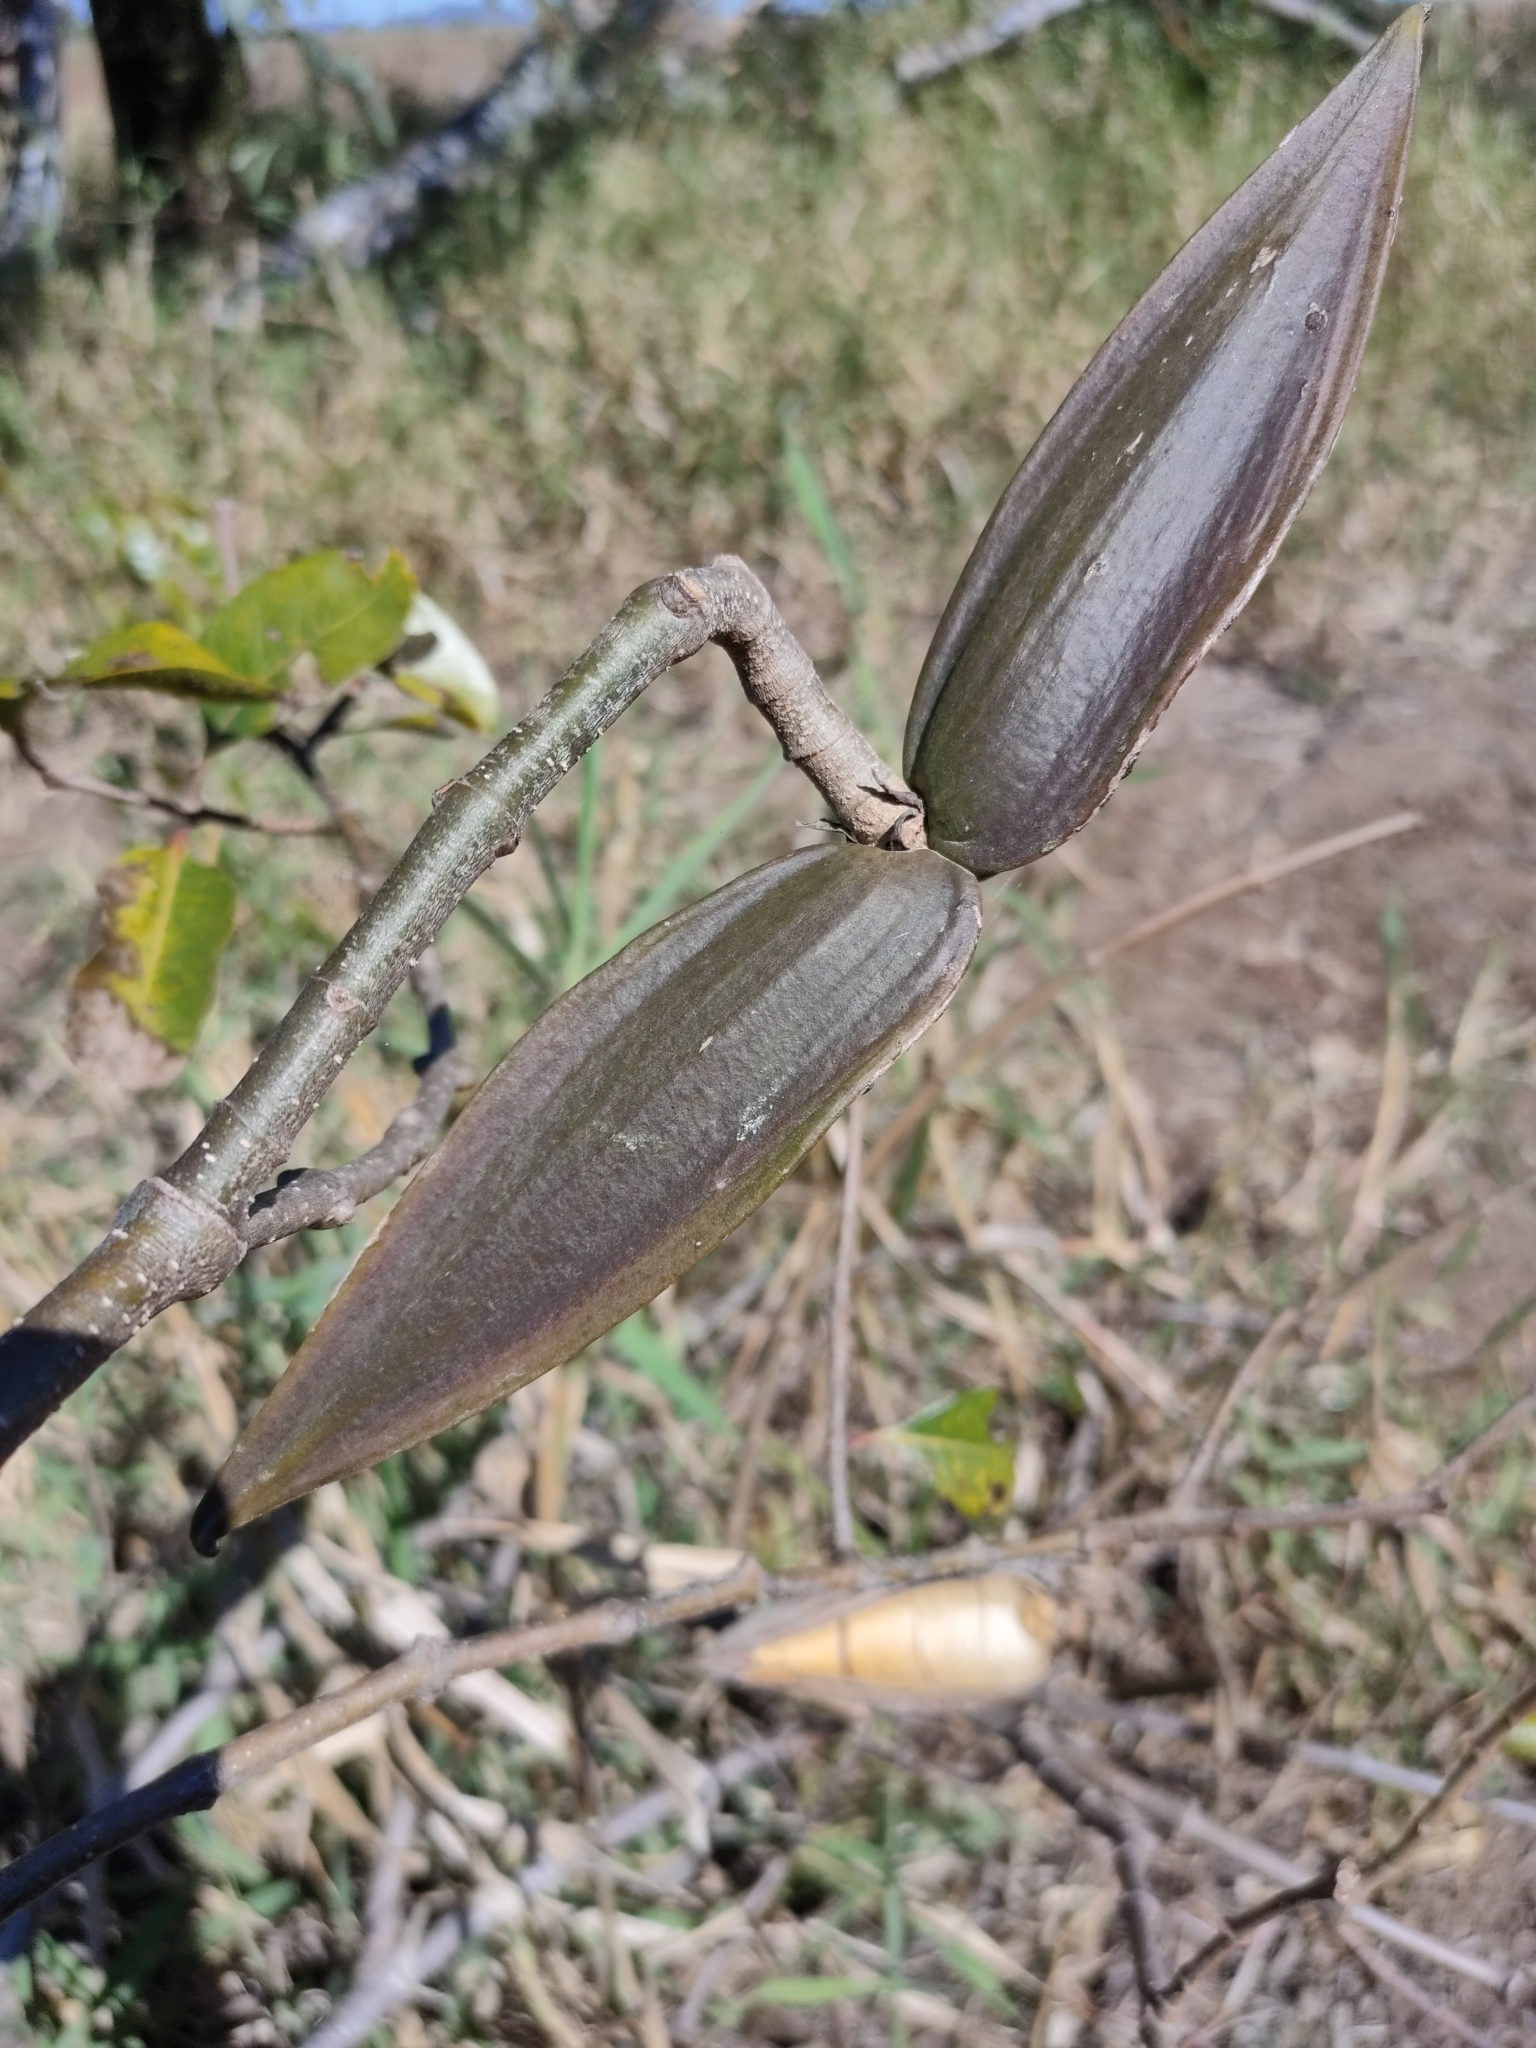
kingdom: Plantae
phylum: Tracheophyta
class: Magnoliopsida
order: Gentianales
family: Apocynaceae
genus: Cryptostegia
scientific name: Cryptostegia grandiflora
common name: Palay rubbervine
